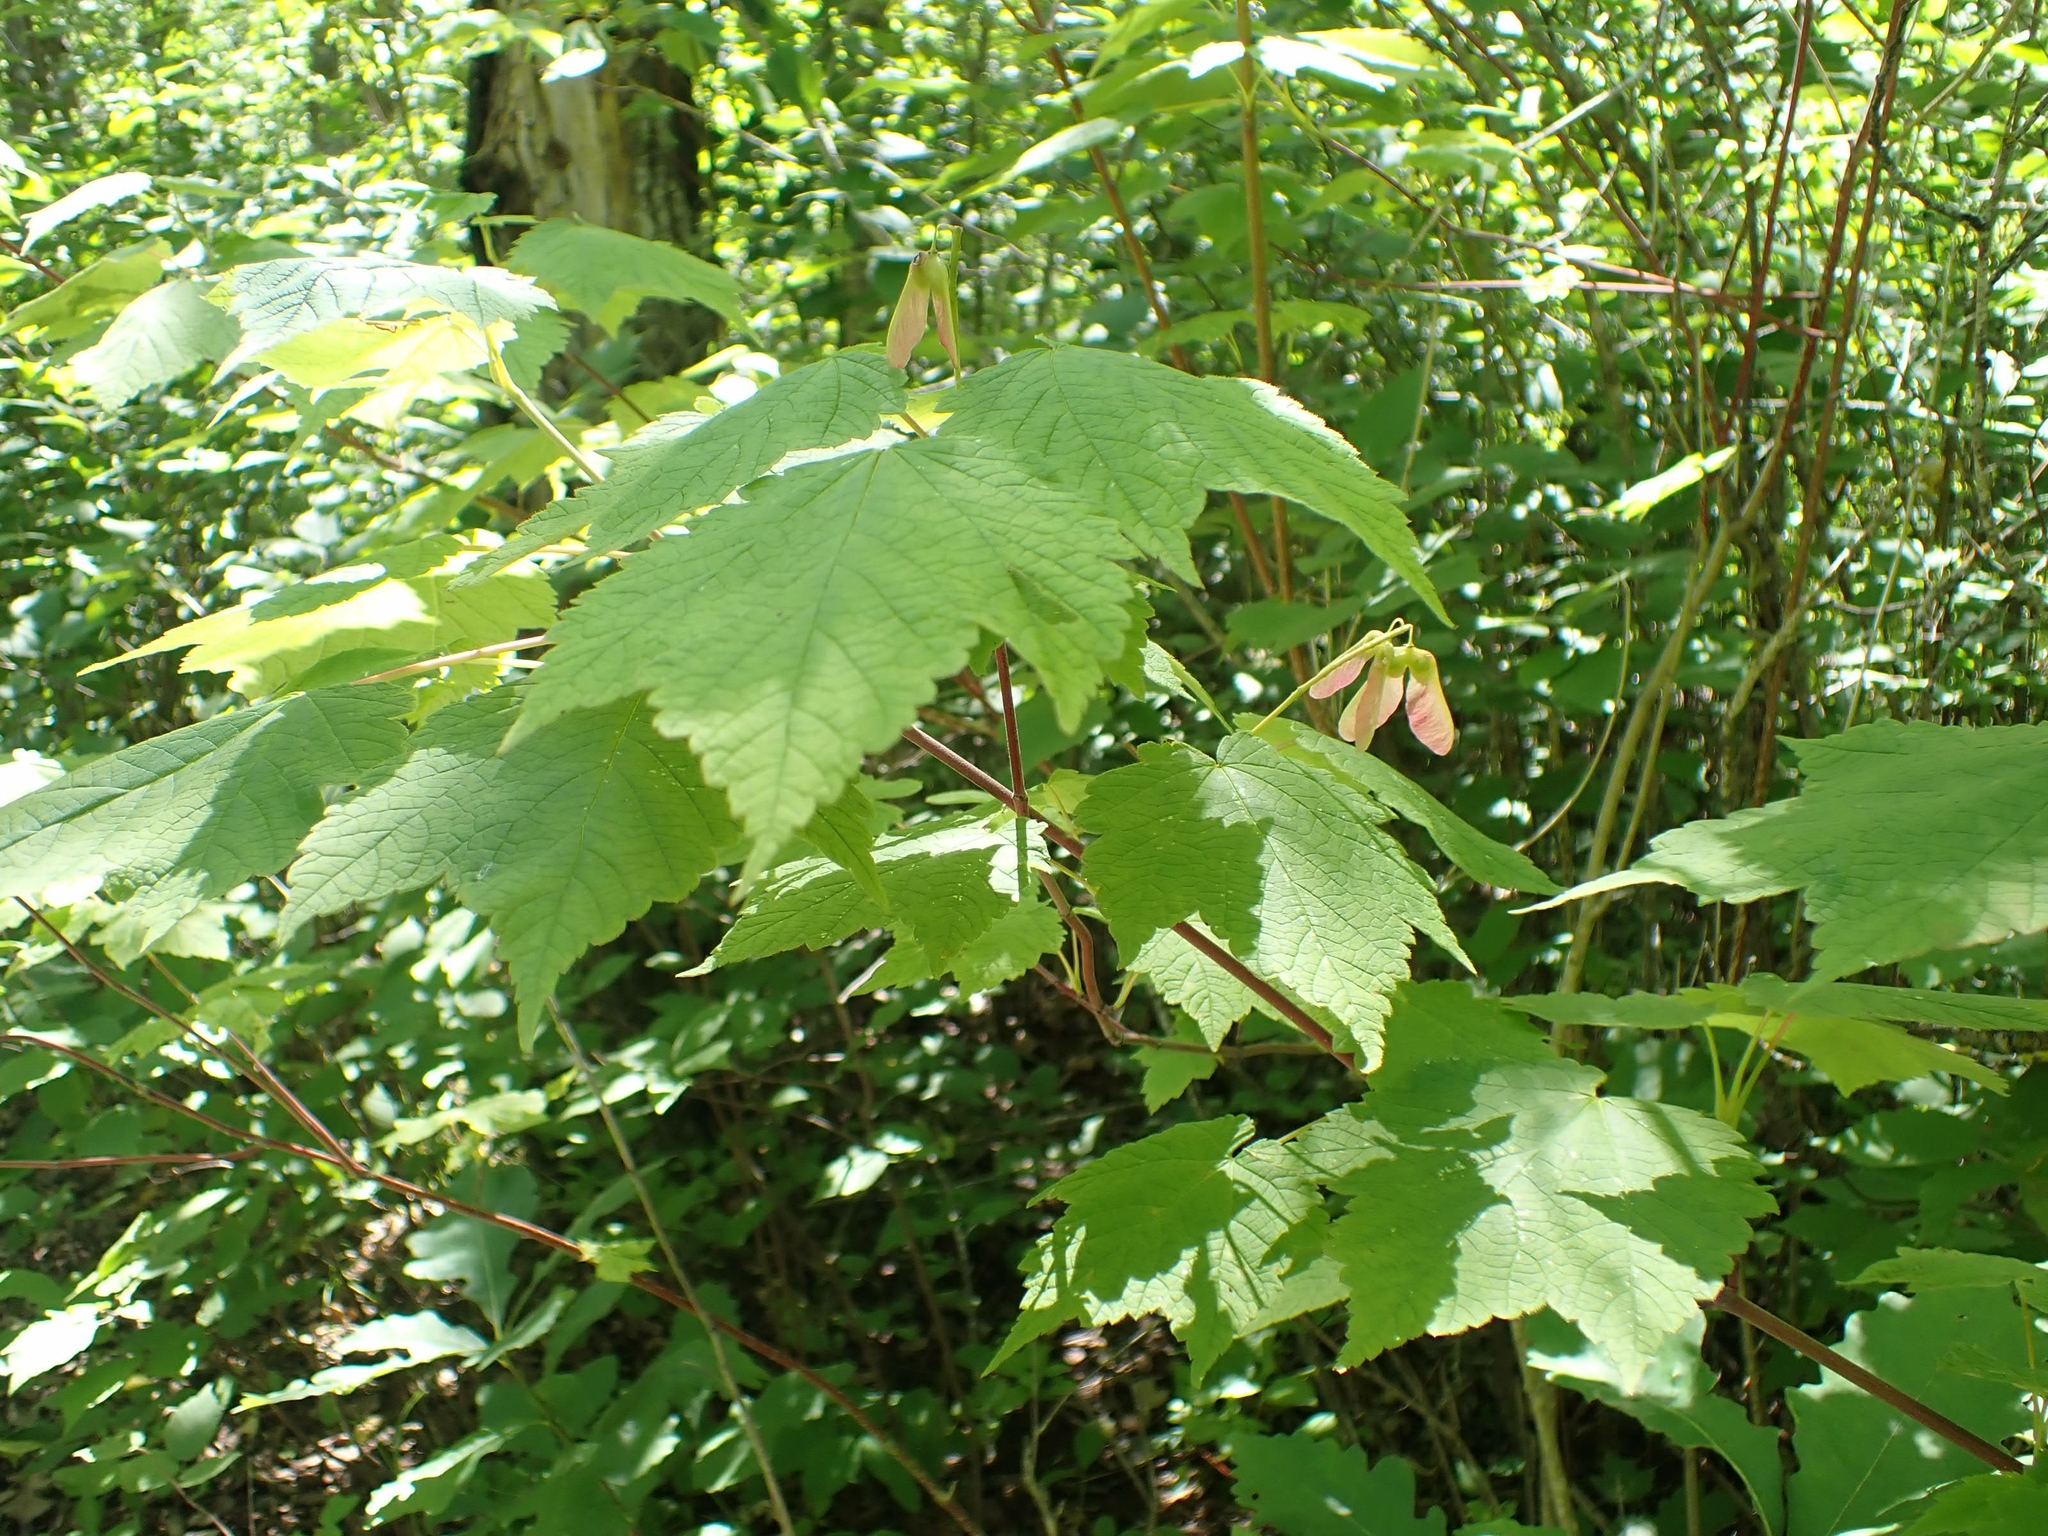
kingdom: Plantae
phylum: Tracheophyta
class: Magnoliopsida
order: Sapindales
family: Sapindaceae
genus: Acer
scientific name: Acer spicatum
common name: Mountain maple
